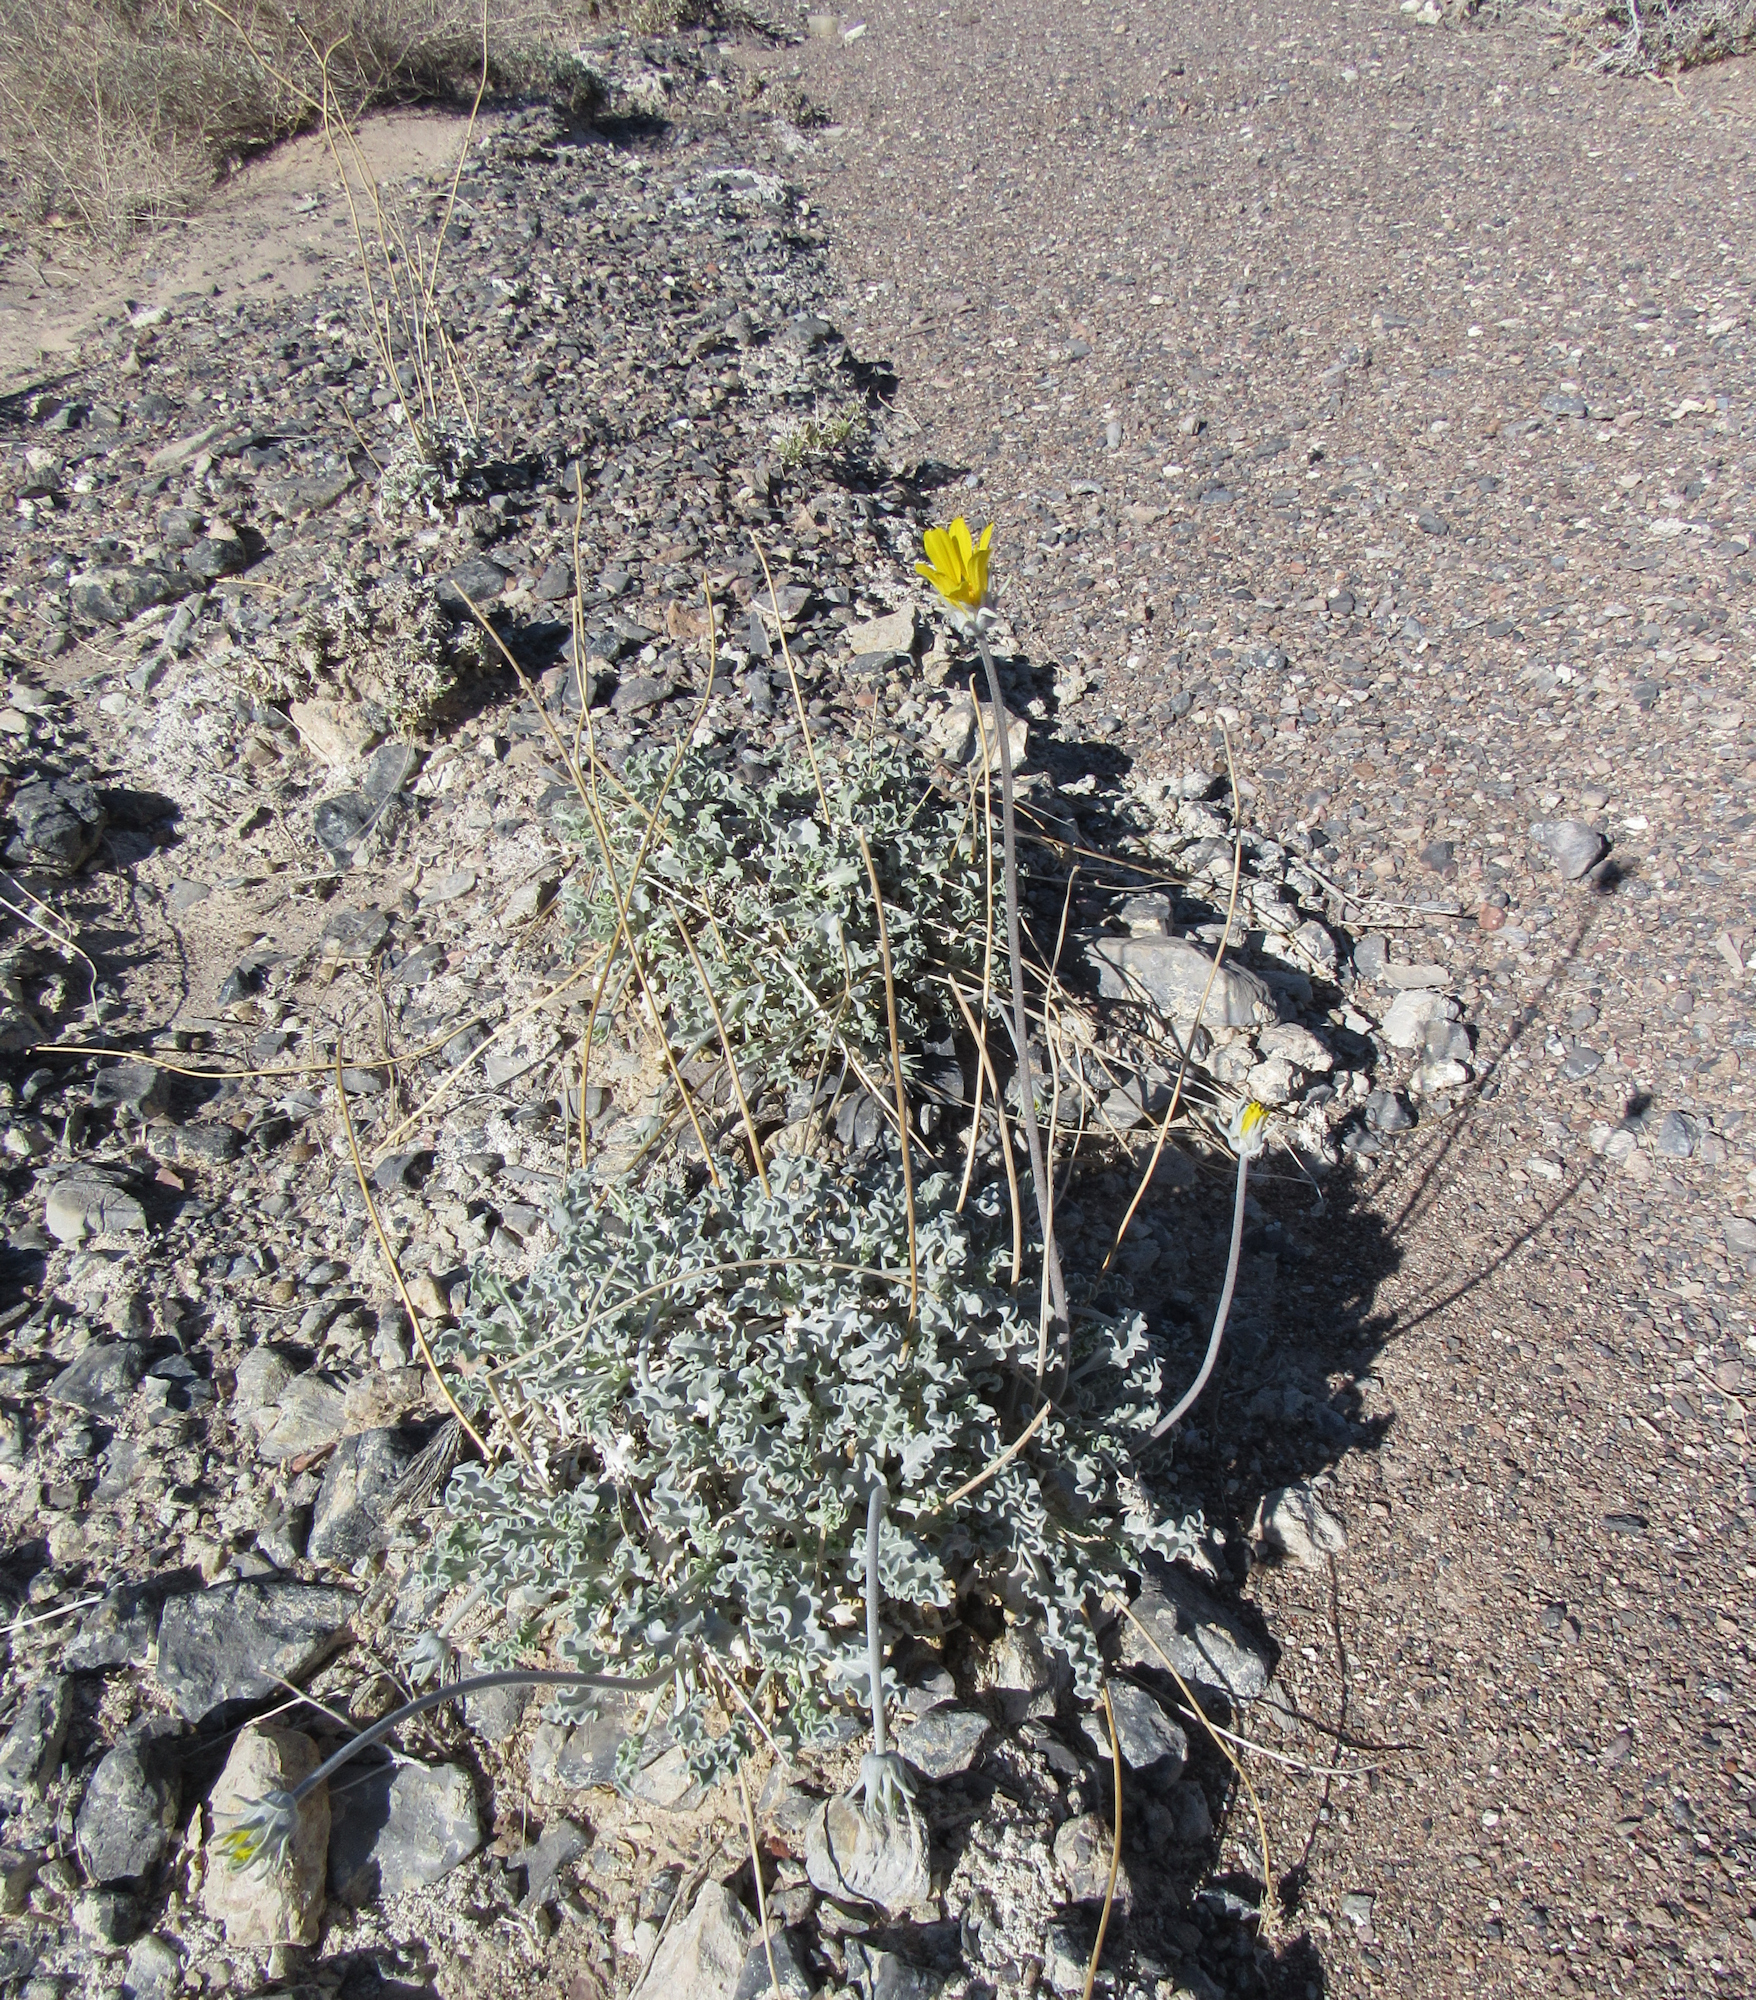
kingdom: Plantae
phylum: Tracheophyta
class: Magnoliopsida
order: Asterales
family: Asteraceae
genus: Enceliopsis
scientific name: Enceliopsis nudicaulis
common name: Naked-stem daisy
